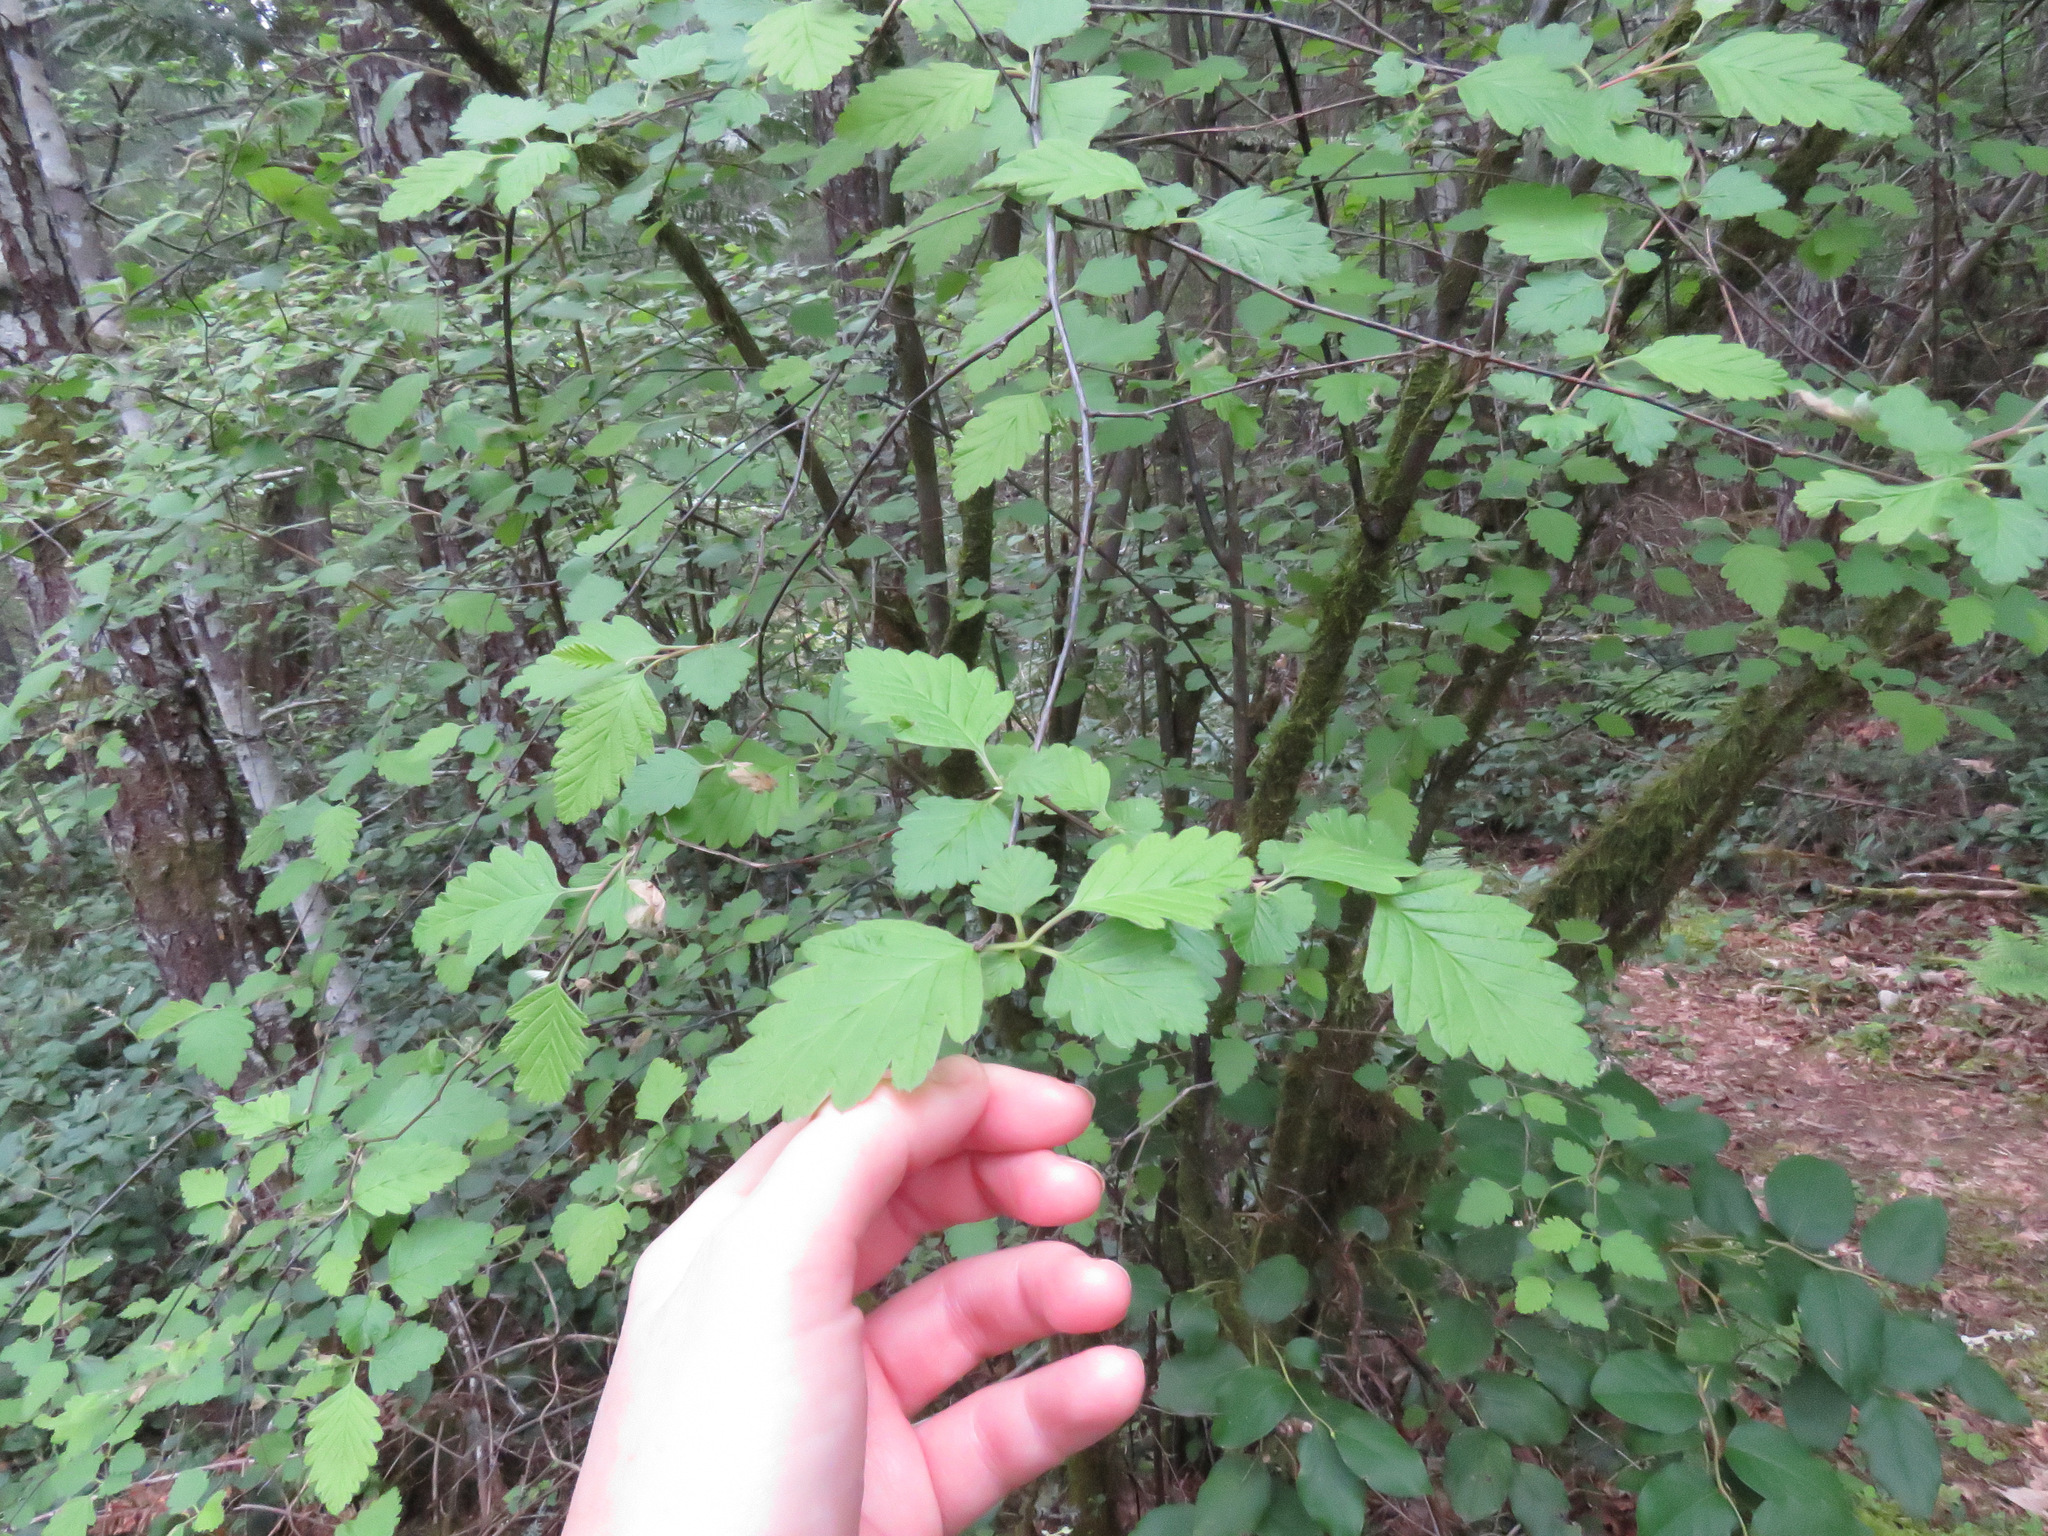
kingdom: Plantae
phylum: Tracheophyta
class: Magnoliopsida
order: Rosales
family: Rosaceae
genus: Holodiscus
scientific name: Holodiscus discolor
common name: Oceanspray
